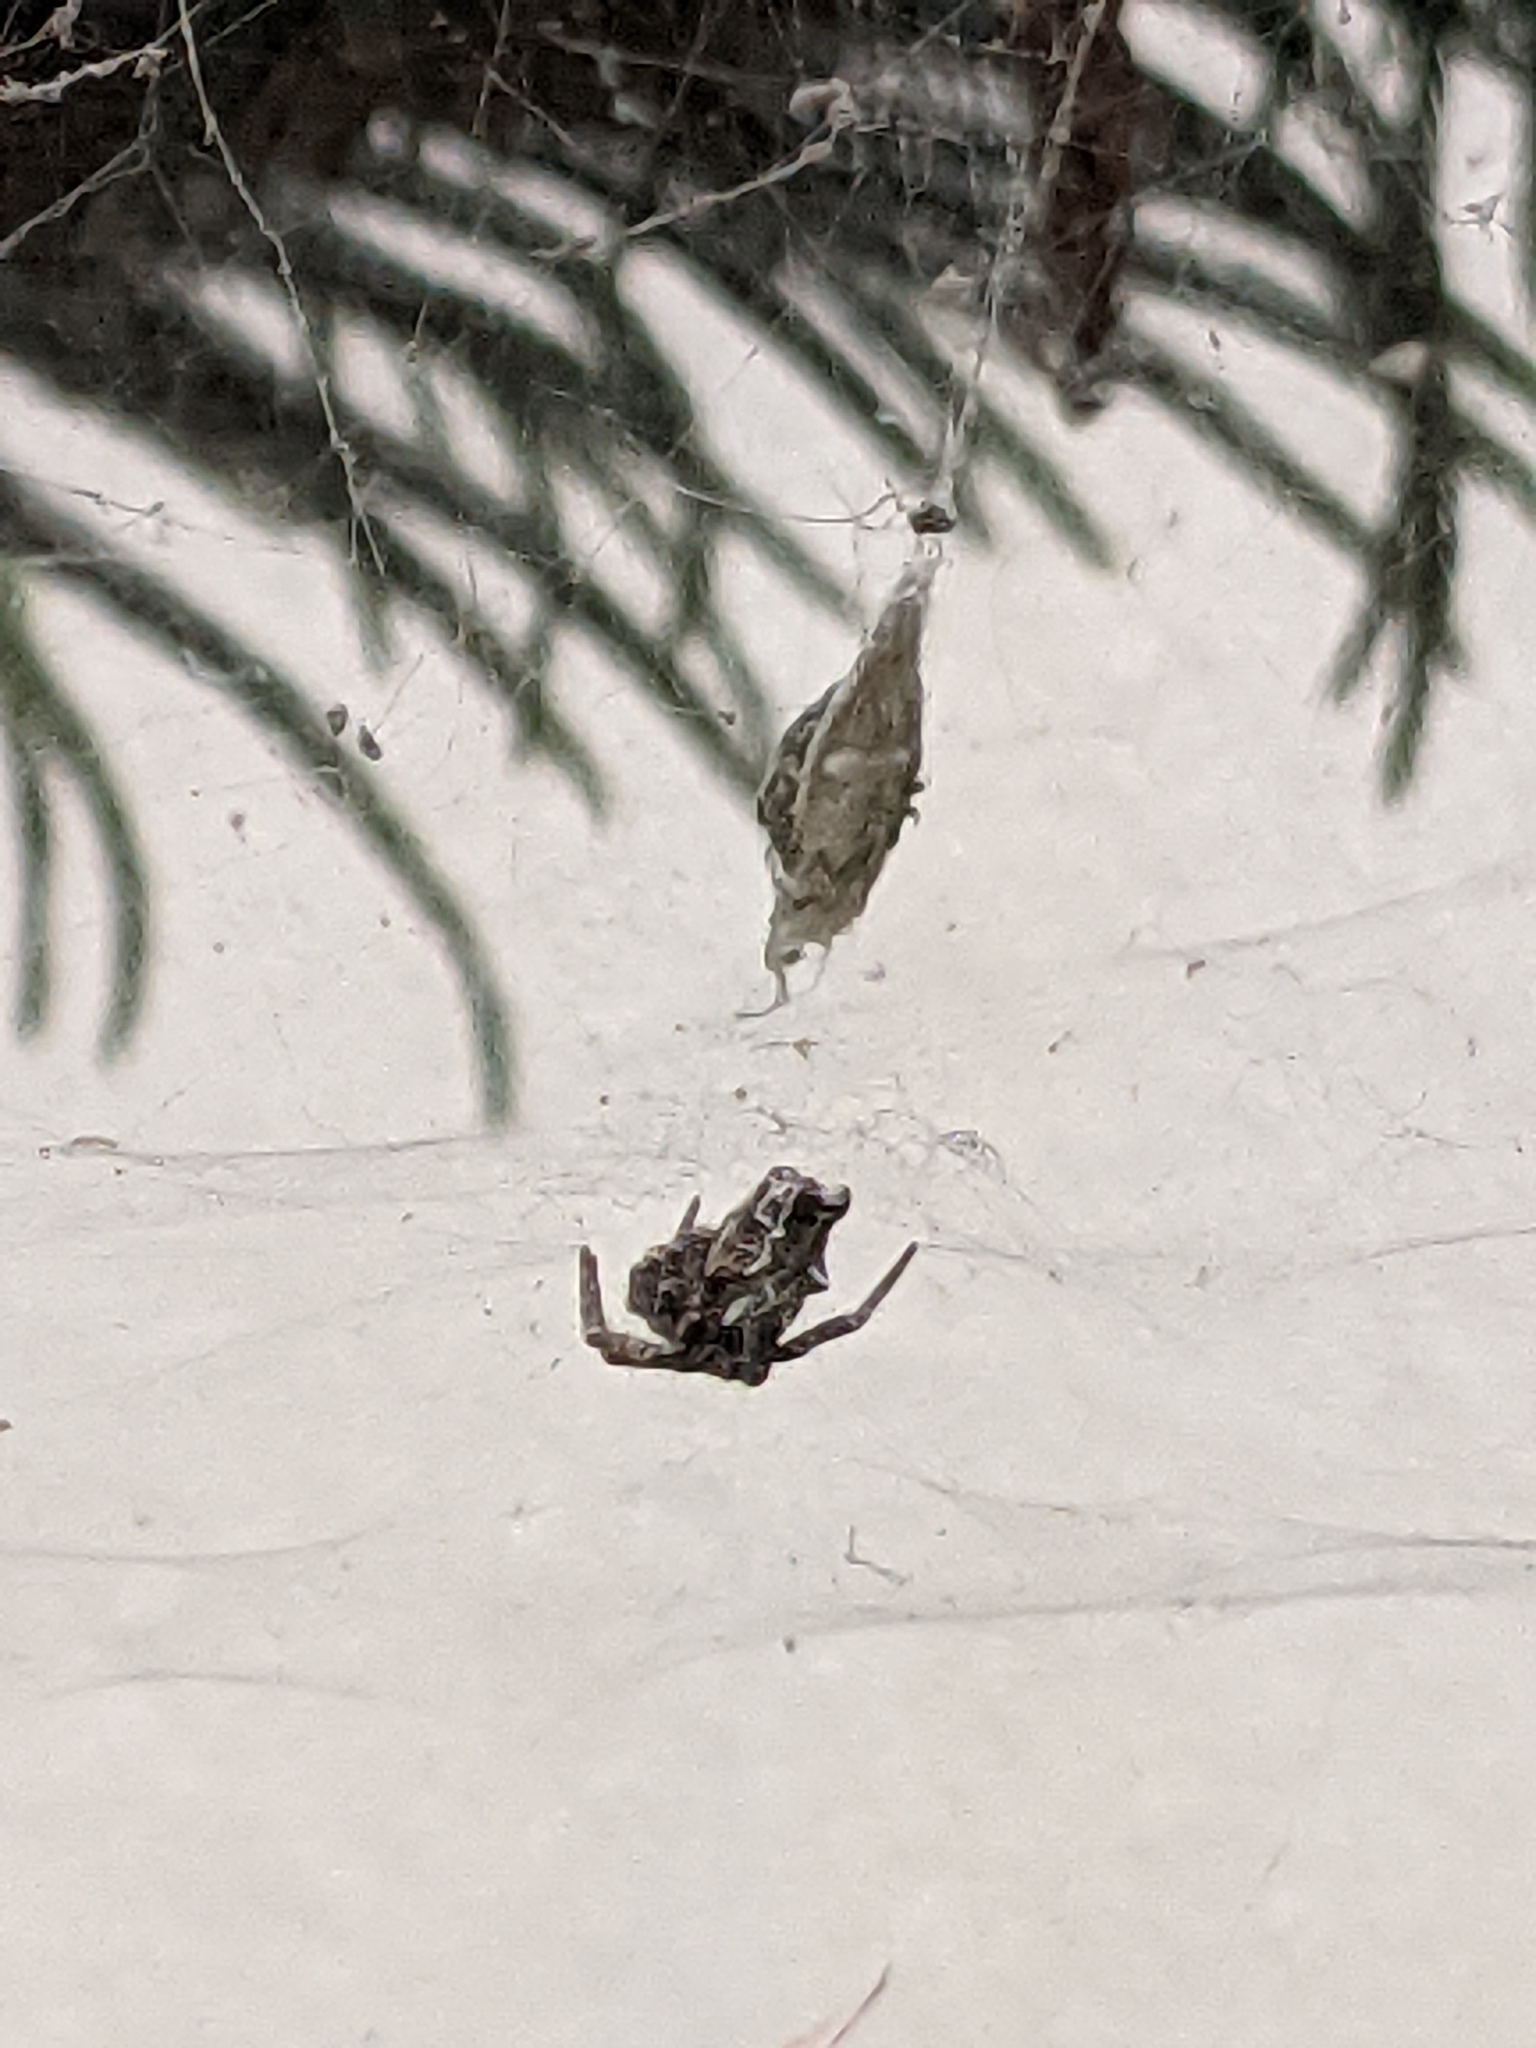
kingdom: Animalia
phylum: Arthropoda
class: Arachnida
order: Araneae
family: Araneidae
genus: Cyrtophora
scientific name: Cyrtophora citricola
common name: Orb weavers
